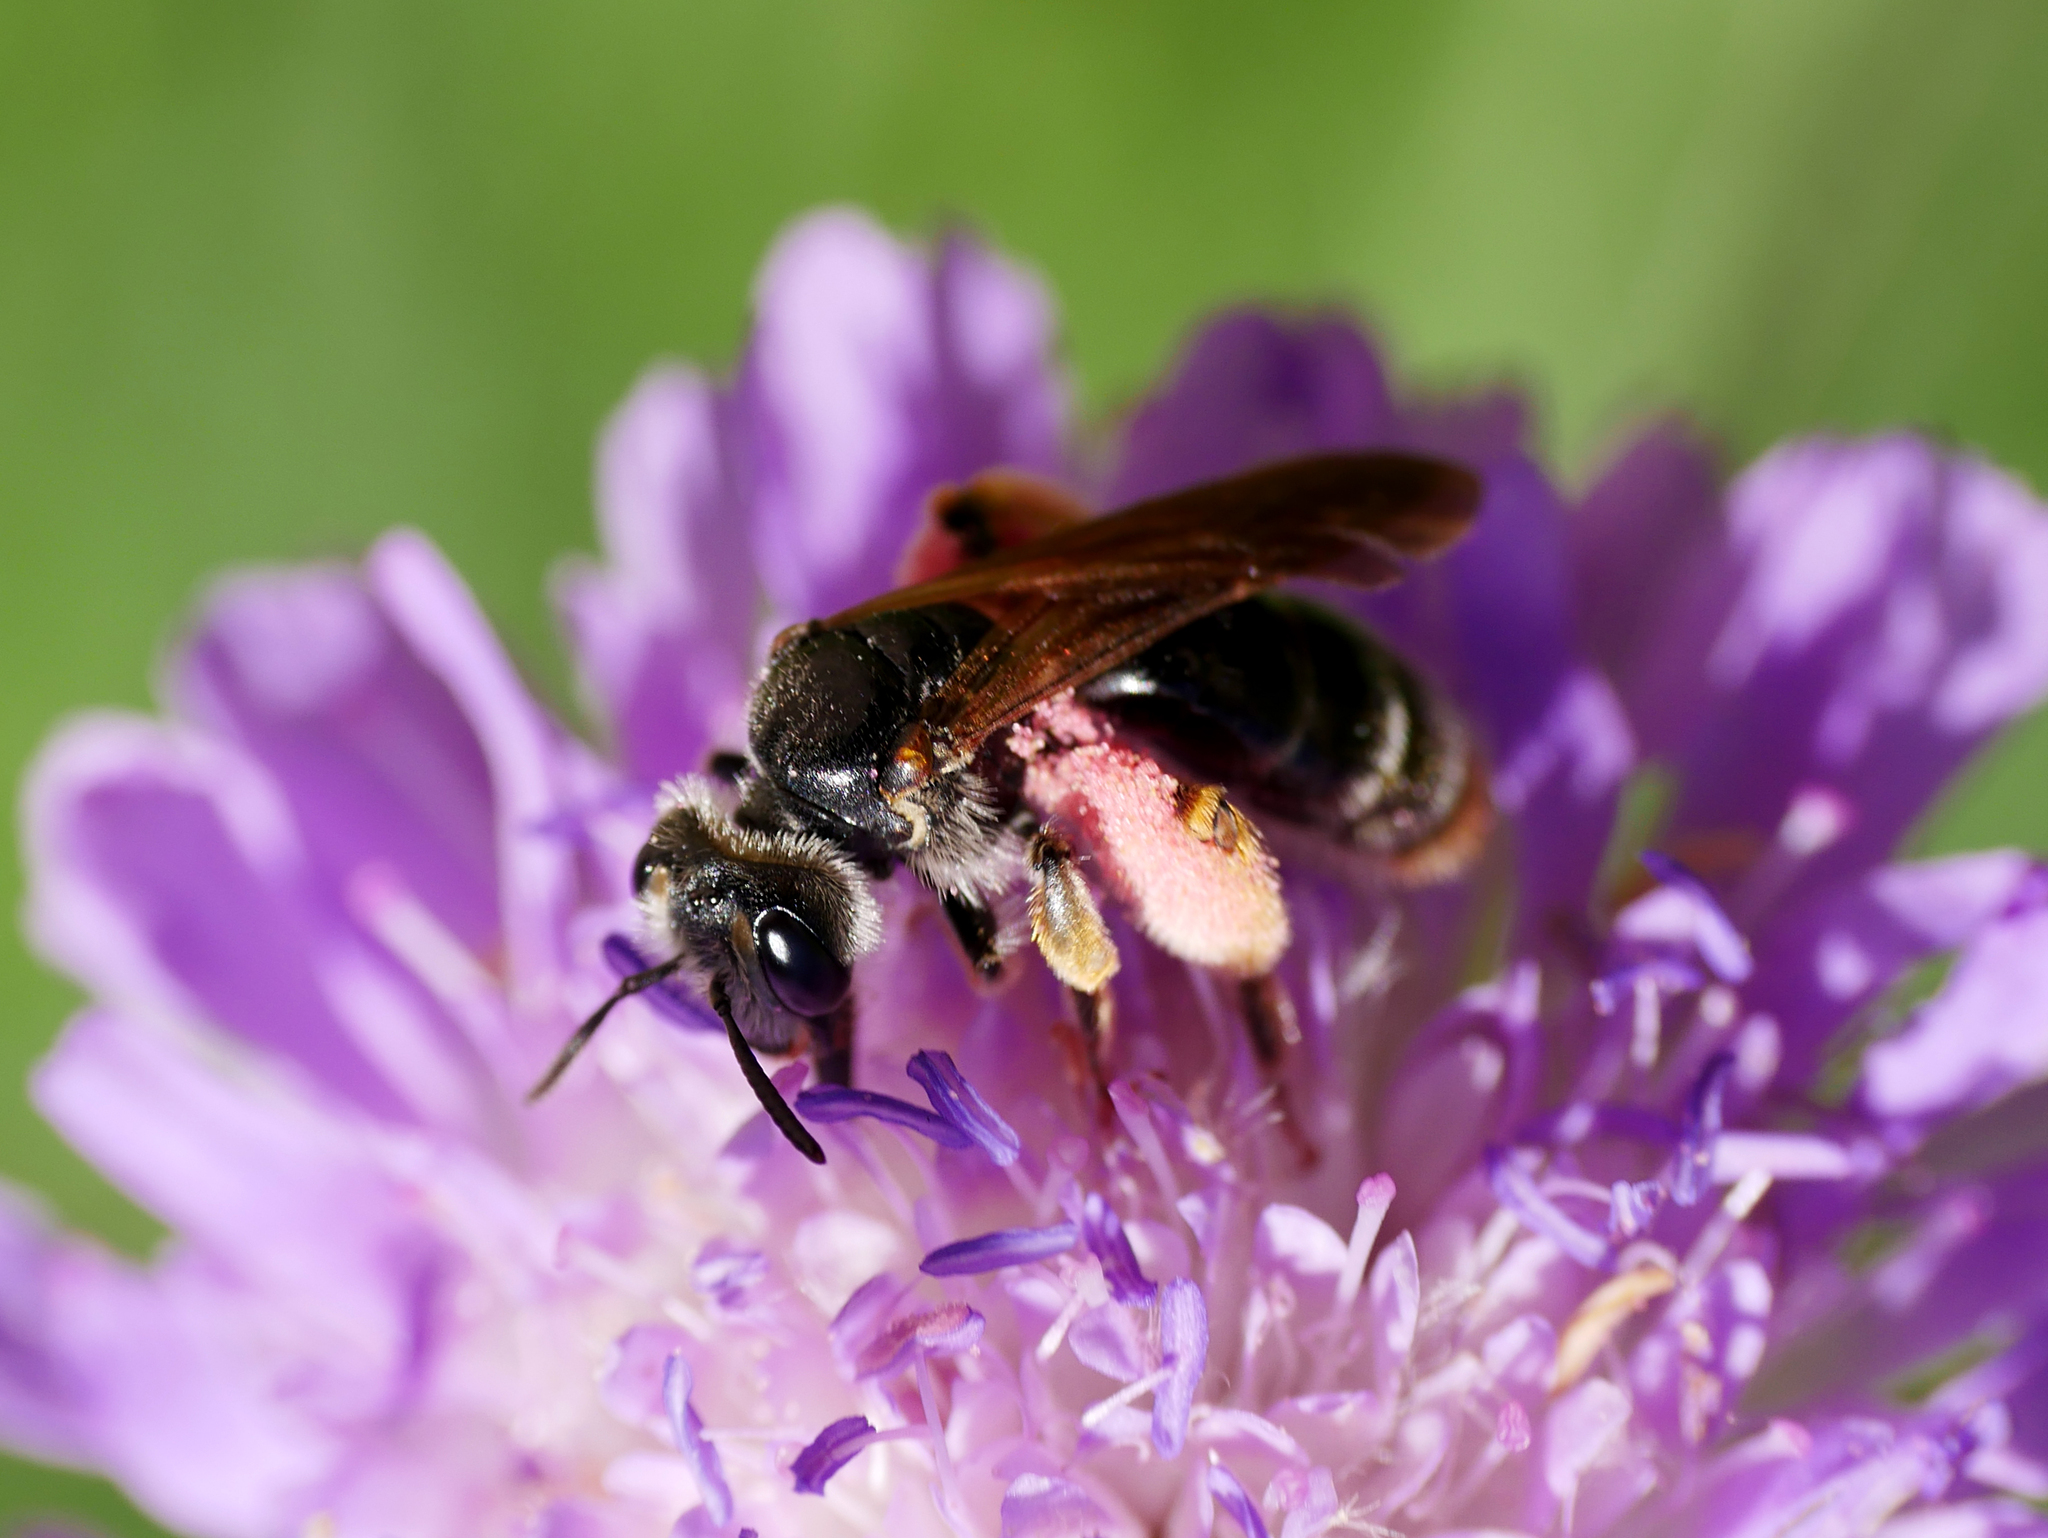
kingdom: Animalia
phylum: Arthropoda
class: Insecta
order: Hymenoptera
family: Andrenidae
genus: Andrena
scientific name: Andrena hattorfiana
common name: Large scabious mining bee
